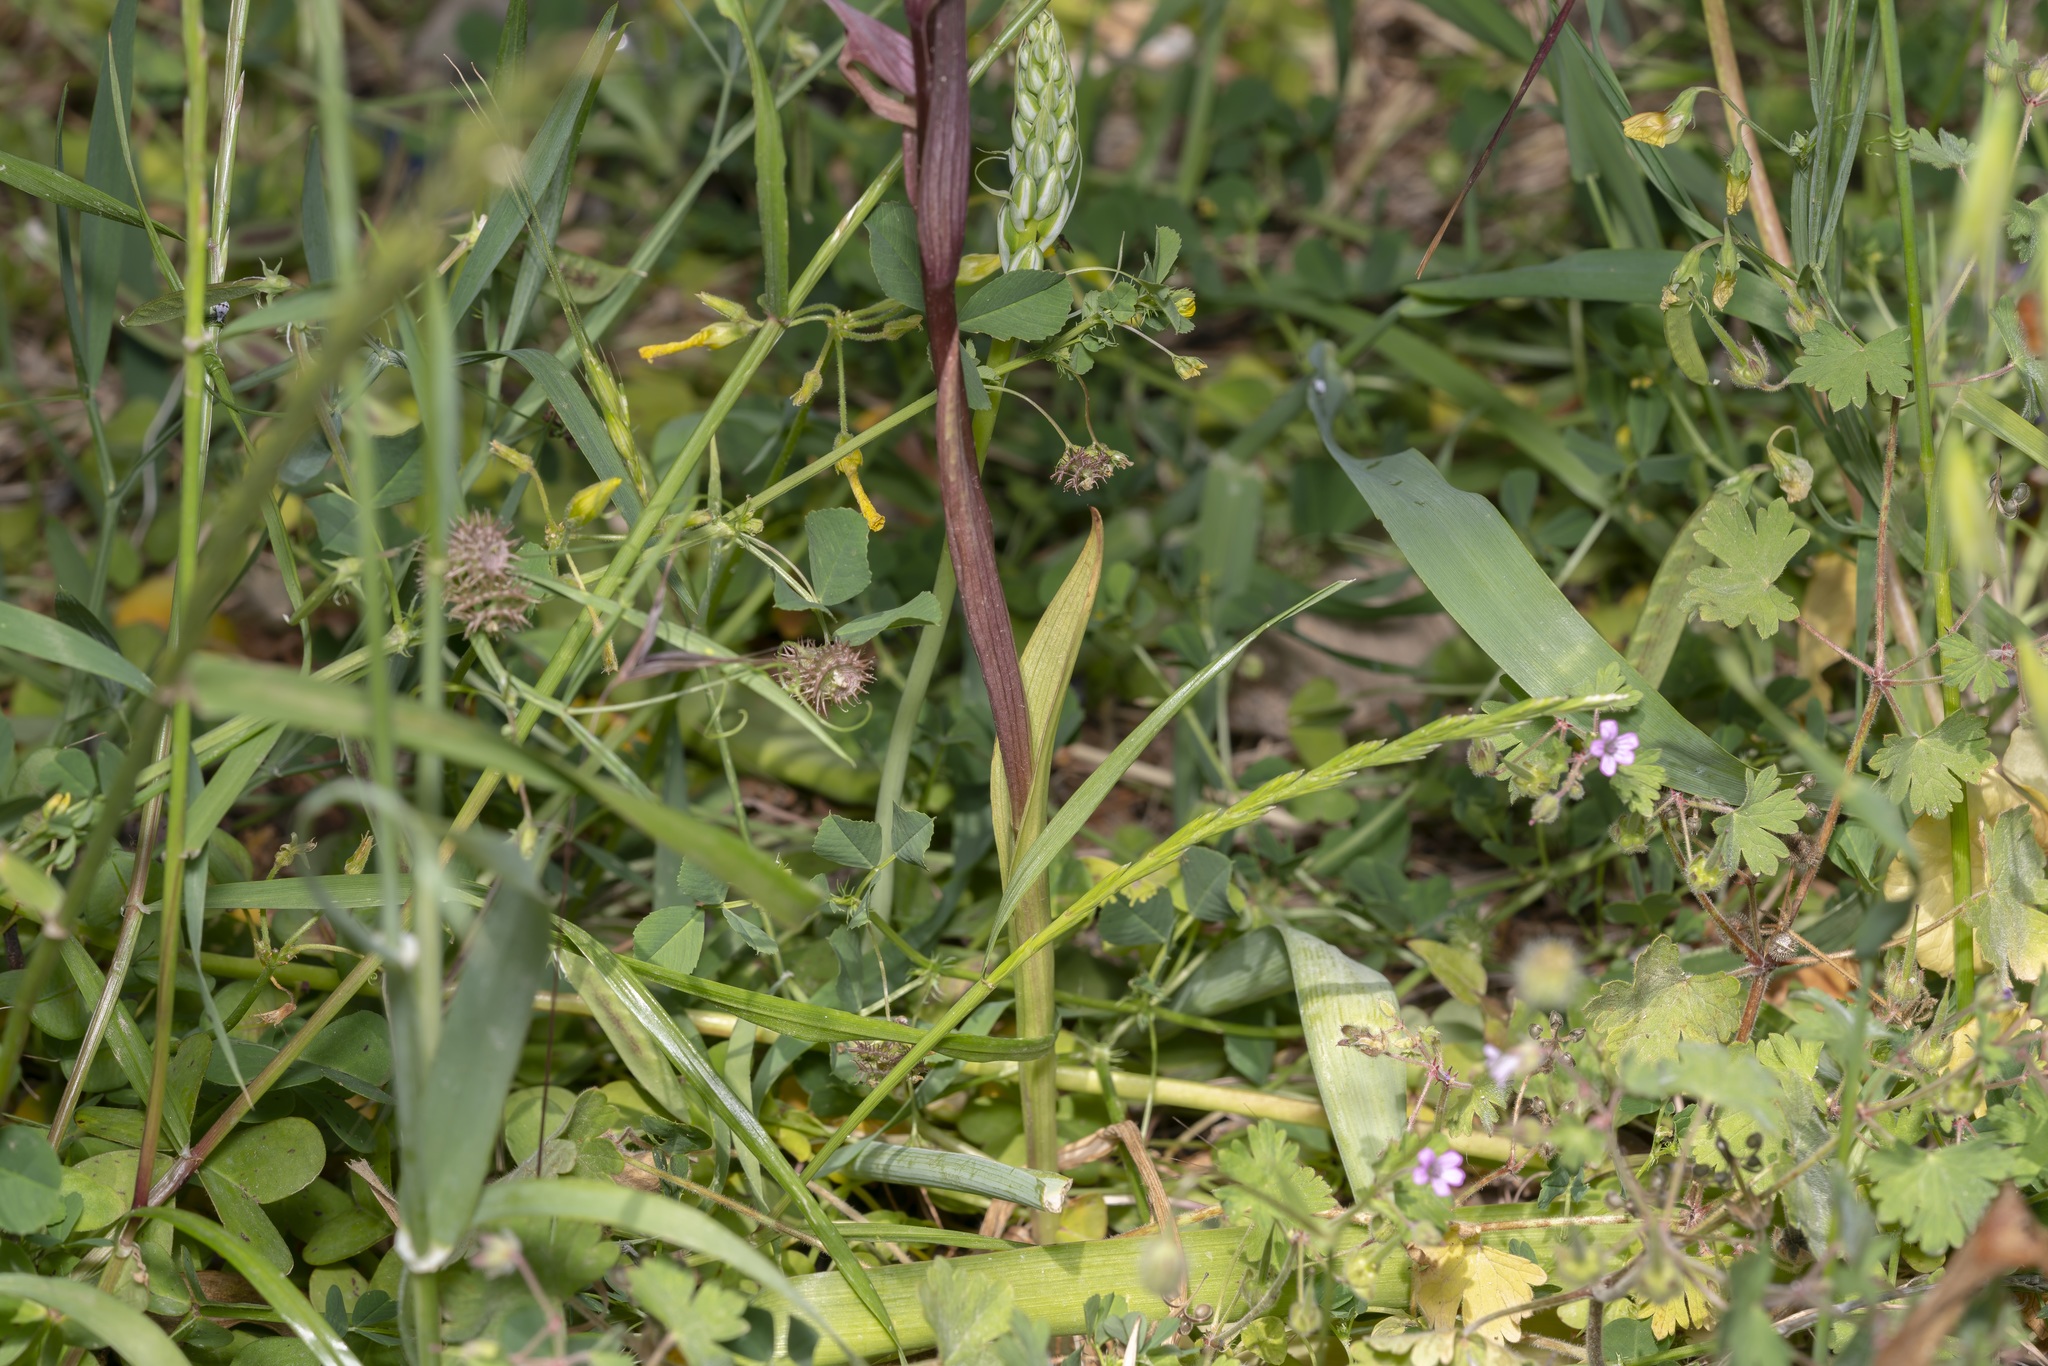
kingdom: Plantae
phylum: Tracheophyta
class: Liliopsida
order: Asparagales
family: Orchidaceae
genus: Serapias
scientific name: Serapias bergonii
